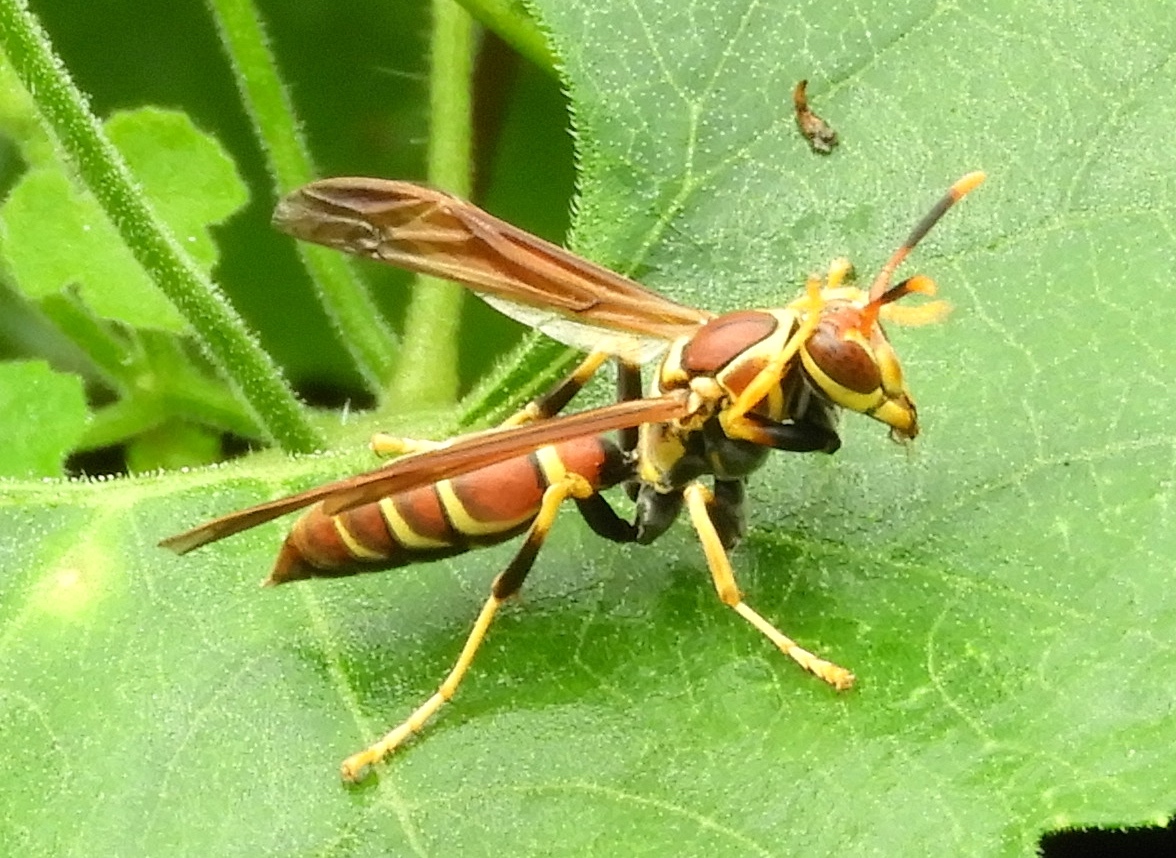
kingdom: Animalia
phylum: Arthropoda
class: Insecta
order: Hymenoptera
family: Eumenidae
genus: Polistes
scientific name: Polistes instabilis
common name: Unstable paper wasp
